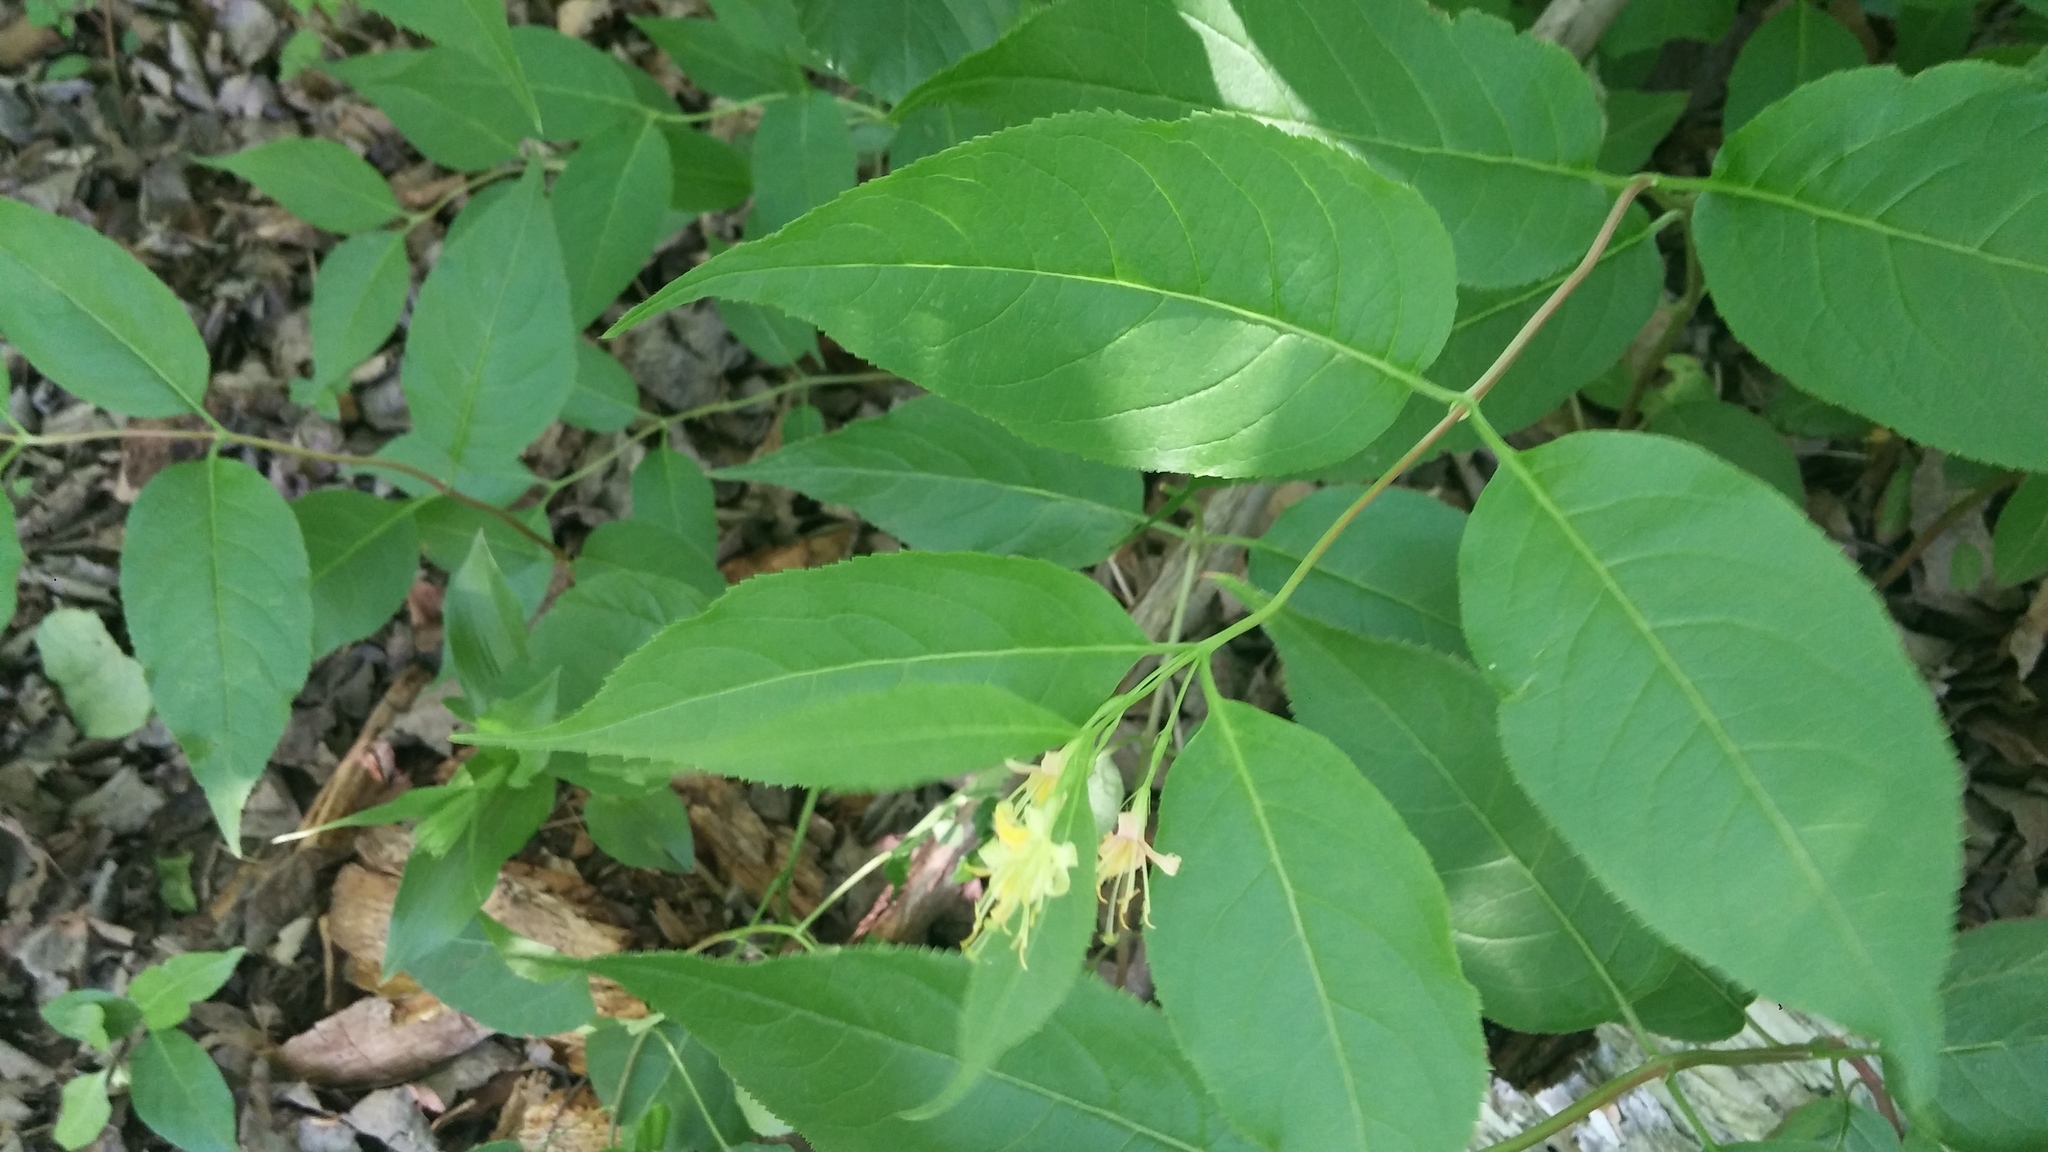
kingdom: Plantae
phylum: Tracheophyta
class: Magnoliopsida
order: Dipsacales
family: Caprifoliaceae
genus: Diervilla
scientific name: Diervilla lonicera
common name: Bush-honeysuckle
